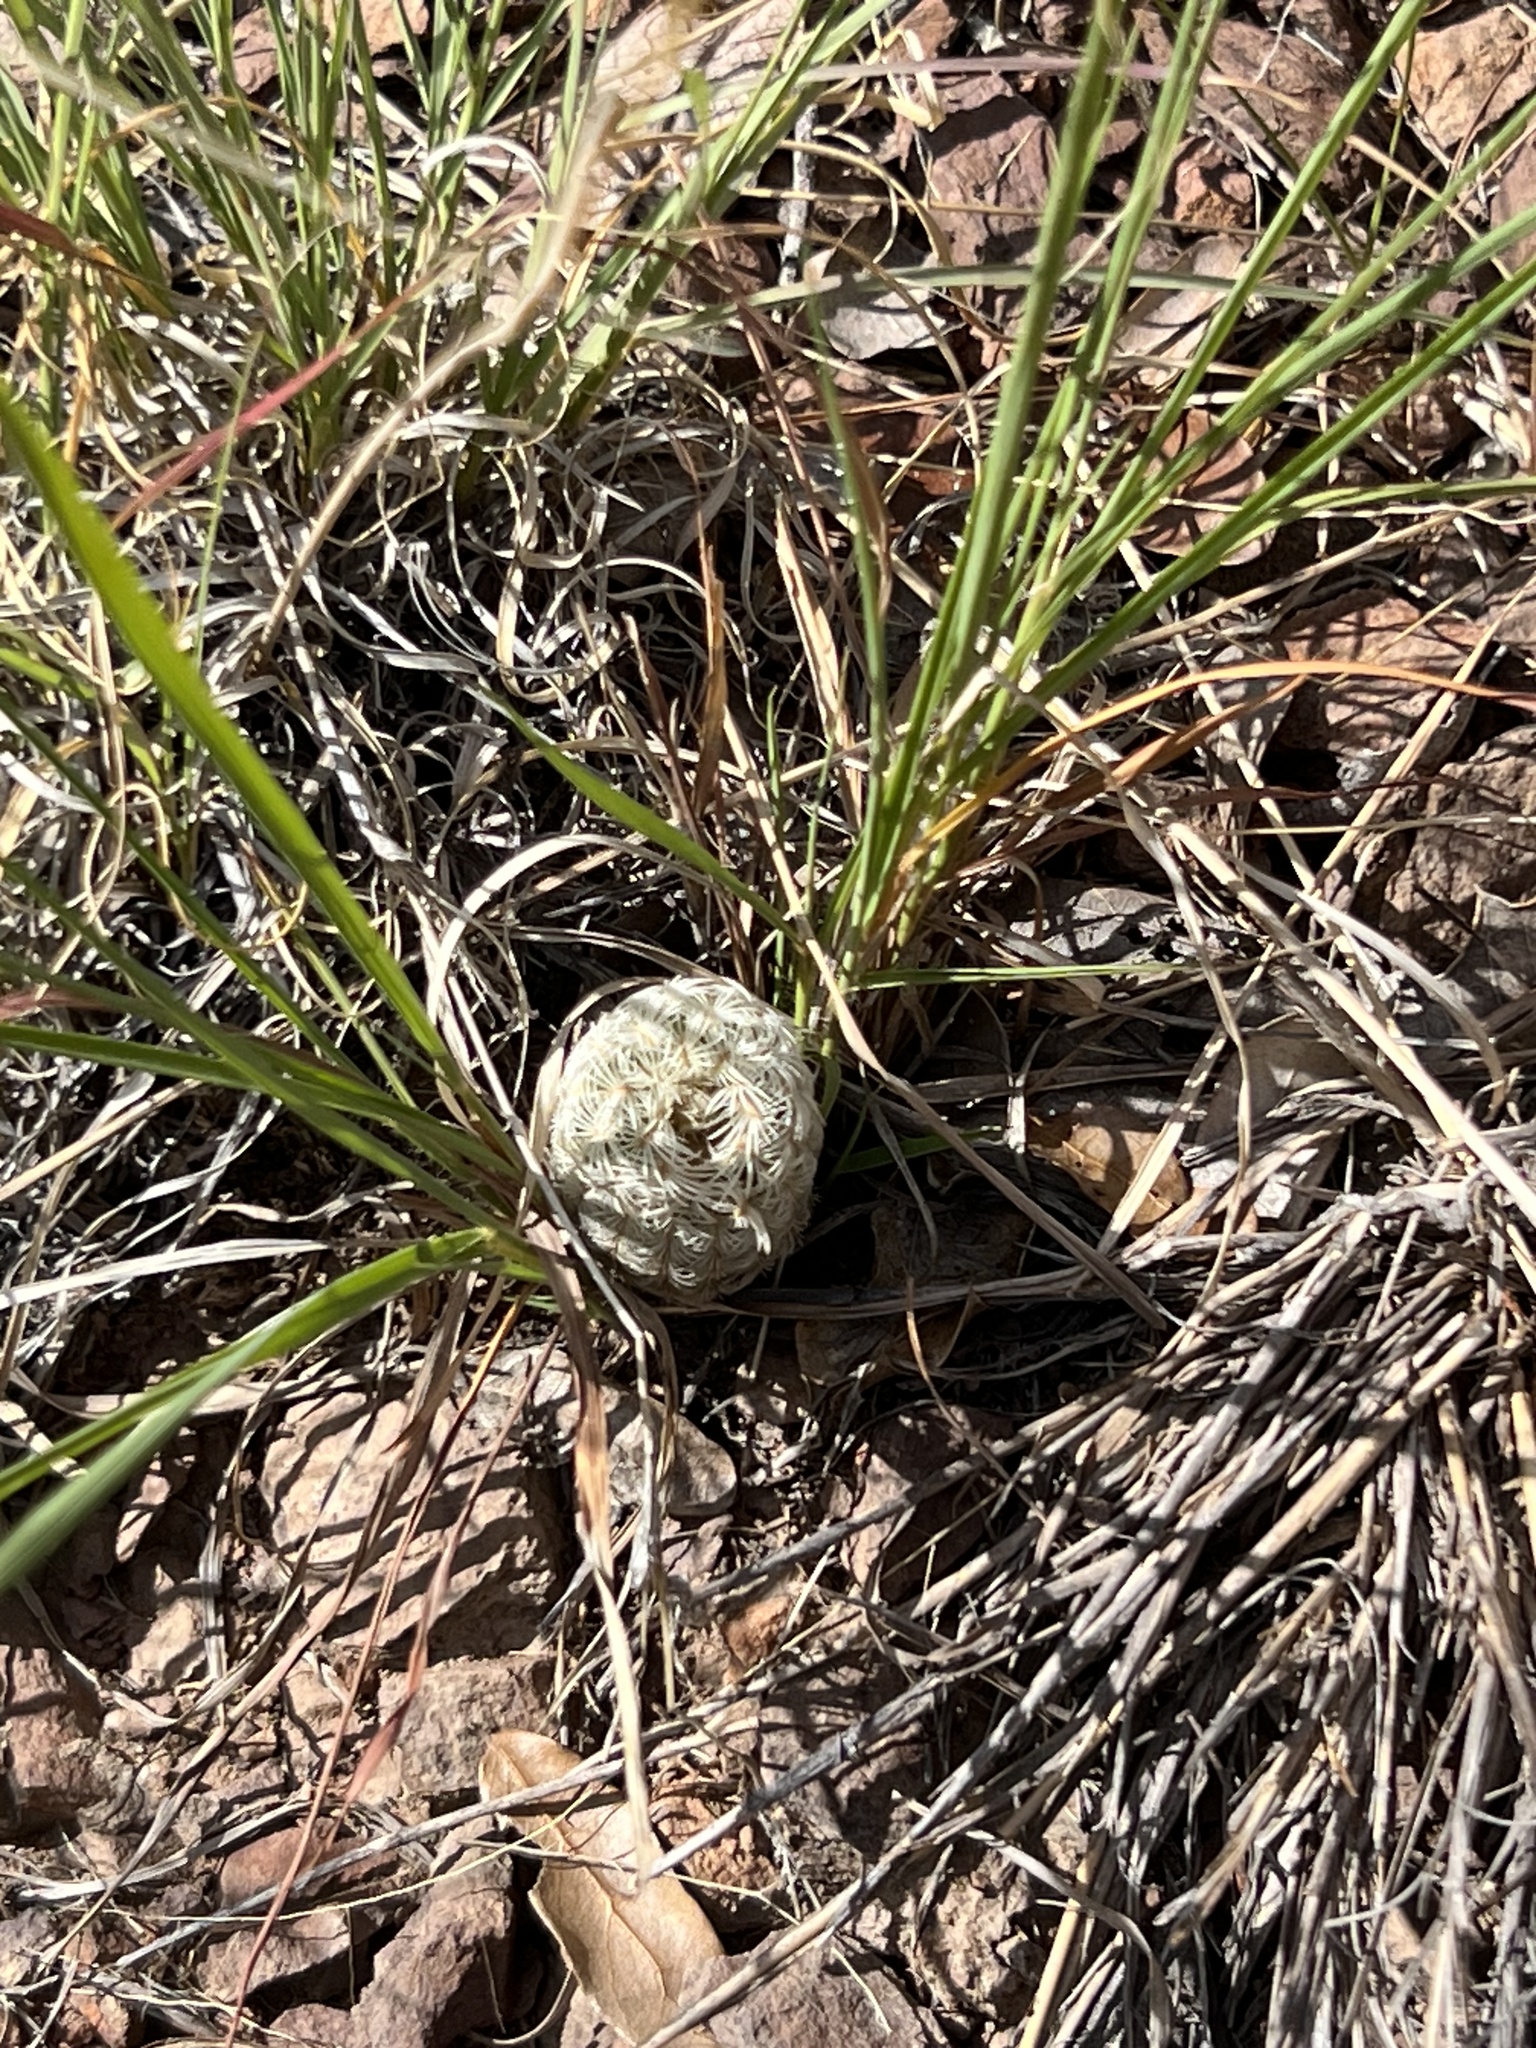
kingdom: Plantae
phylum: Tracheophyta
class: Magnoliopsida
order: Caryophyllales
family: Cactaceae
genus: Echinocereus
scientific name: Echinocereus rigidissimus
